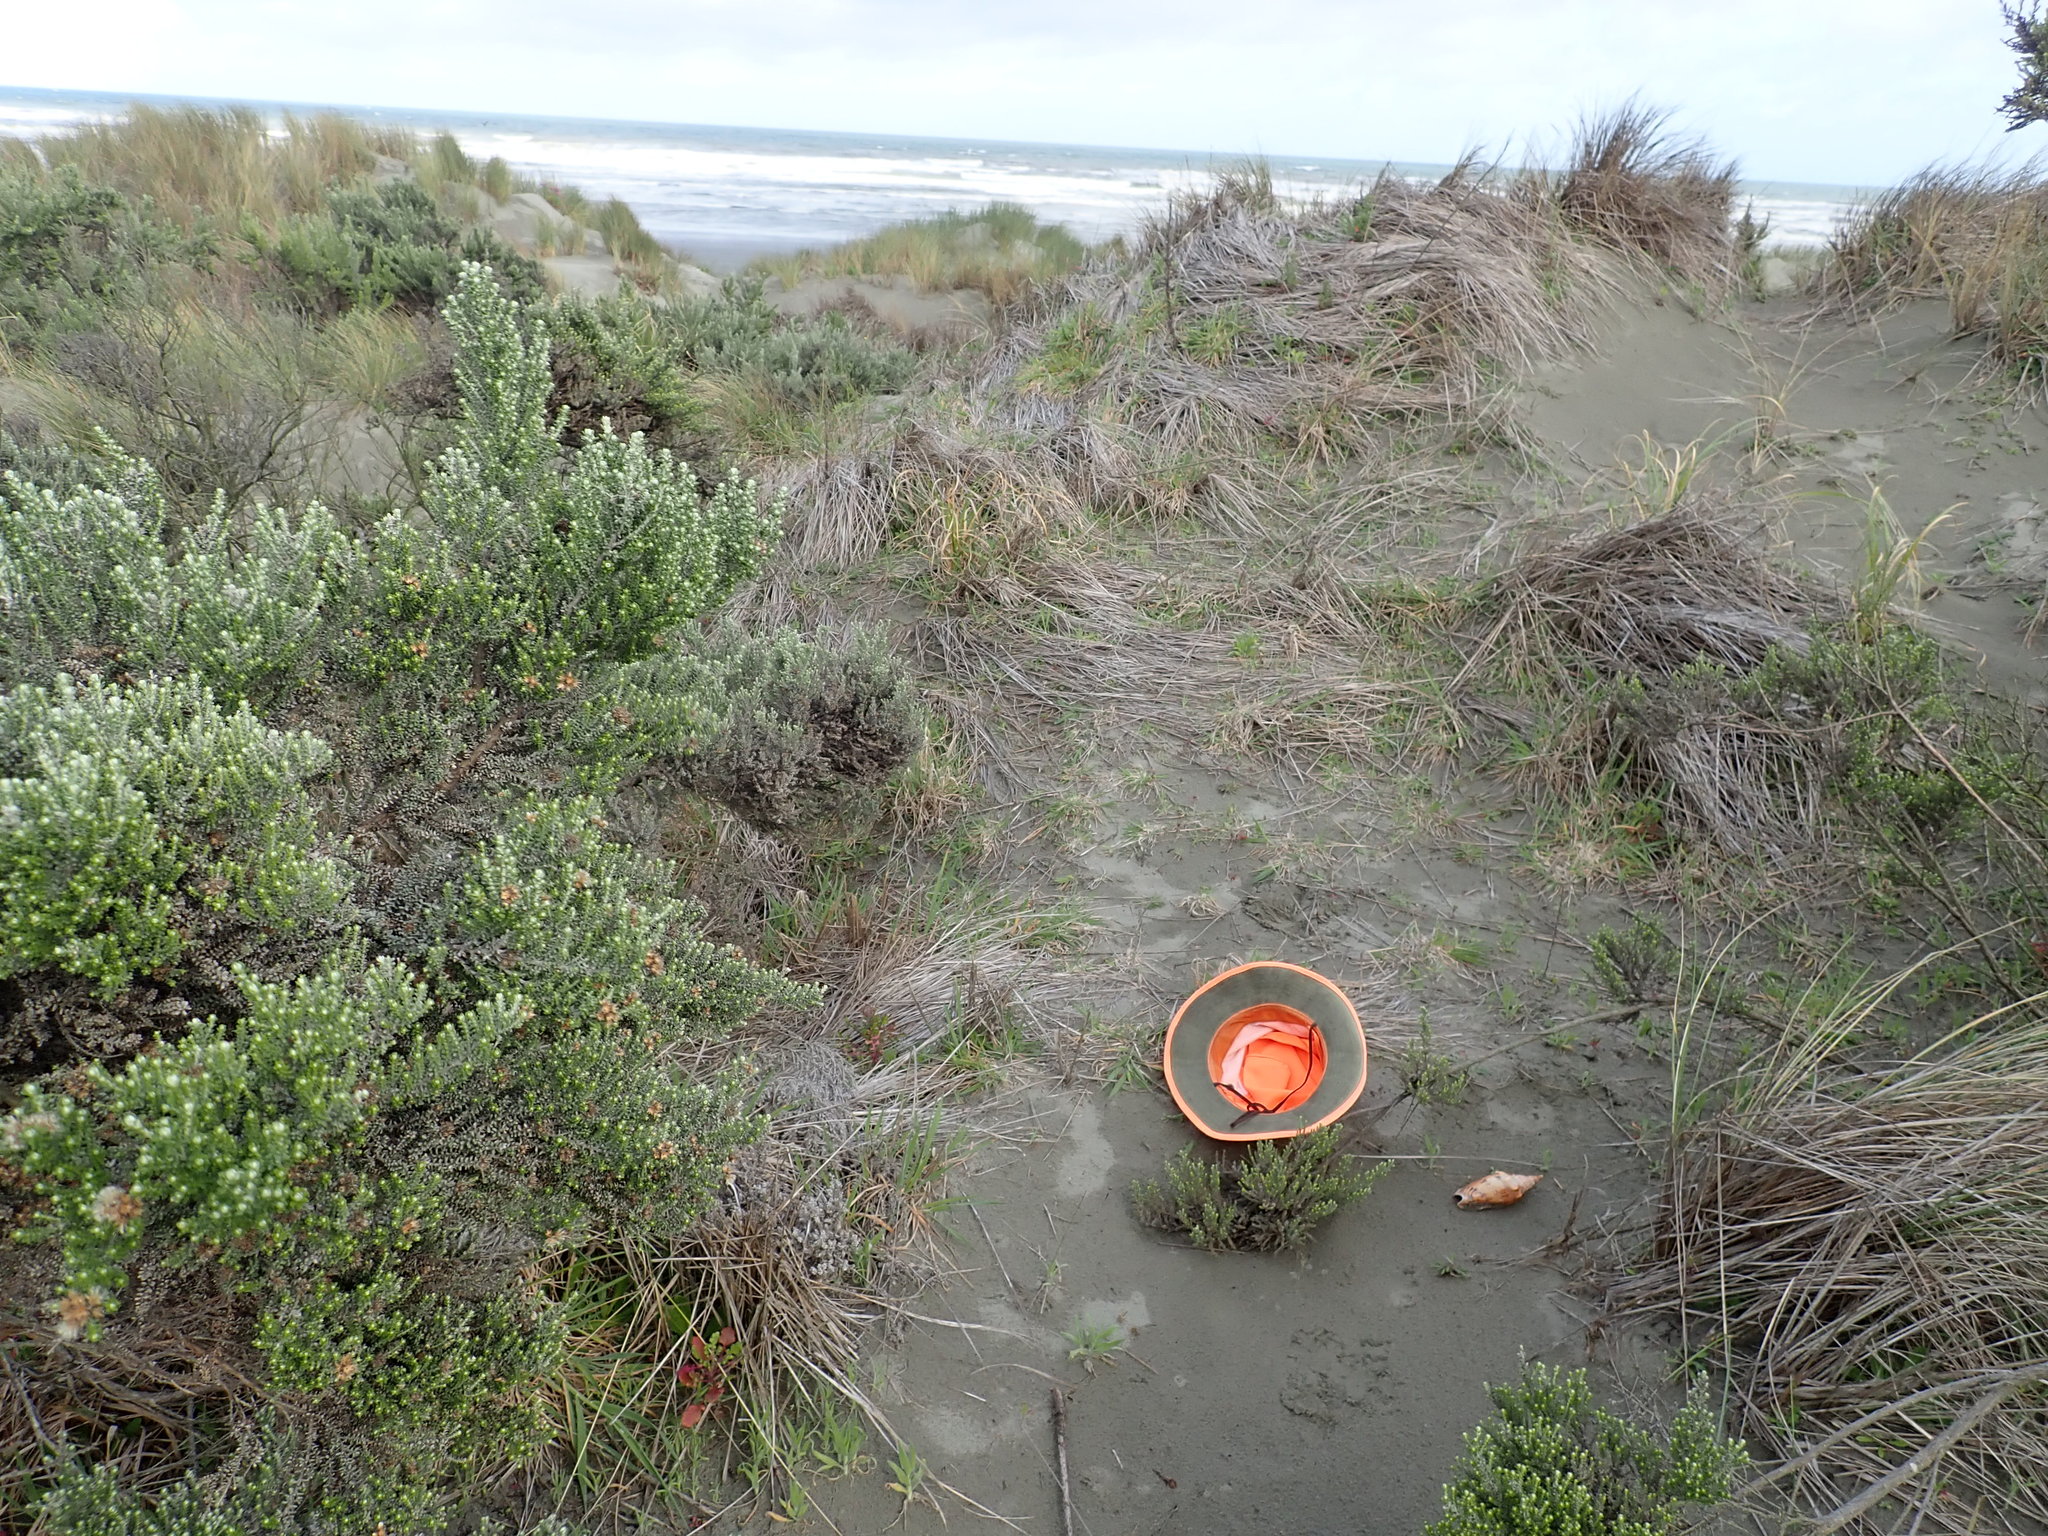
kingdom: Animalia
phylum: Mollusca
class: Gastropoda
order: Neogastropoda
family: Volutidae
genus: Alcithoe
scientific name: Alcithoe arabica
